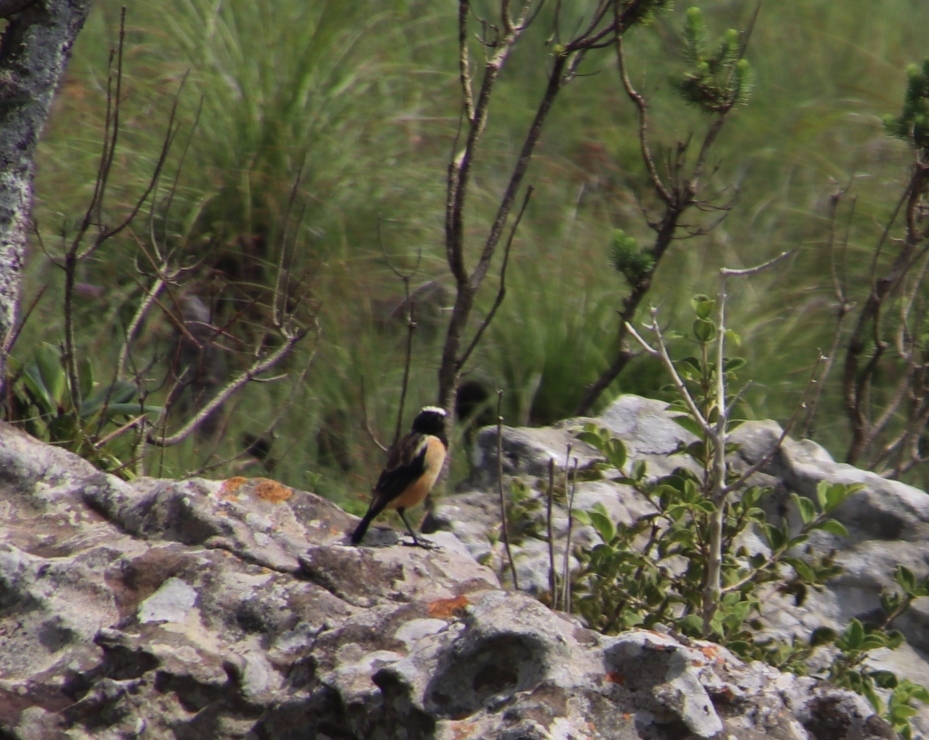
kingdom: Animalia
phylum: Chordata
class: Aves
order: Passeriformes
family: Muscicapidae
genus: Campicoloides
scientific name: Campicoloides bifasciatus
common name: Buff-streaked chat
